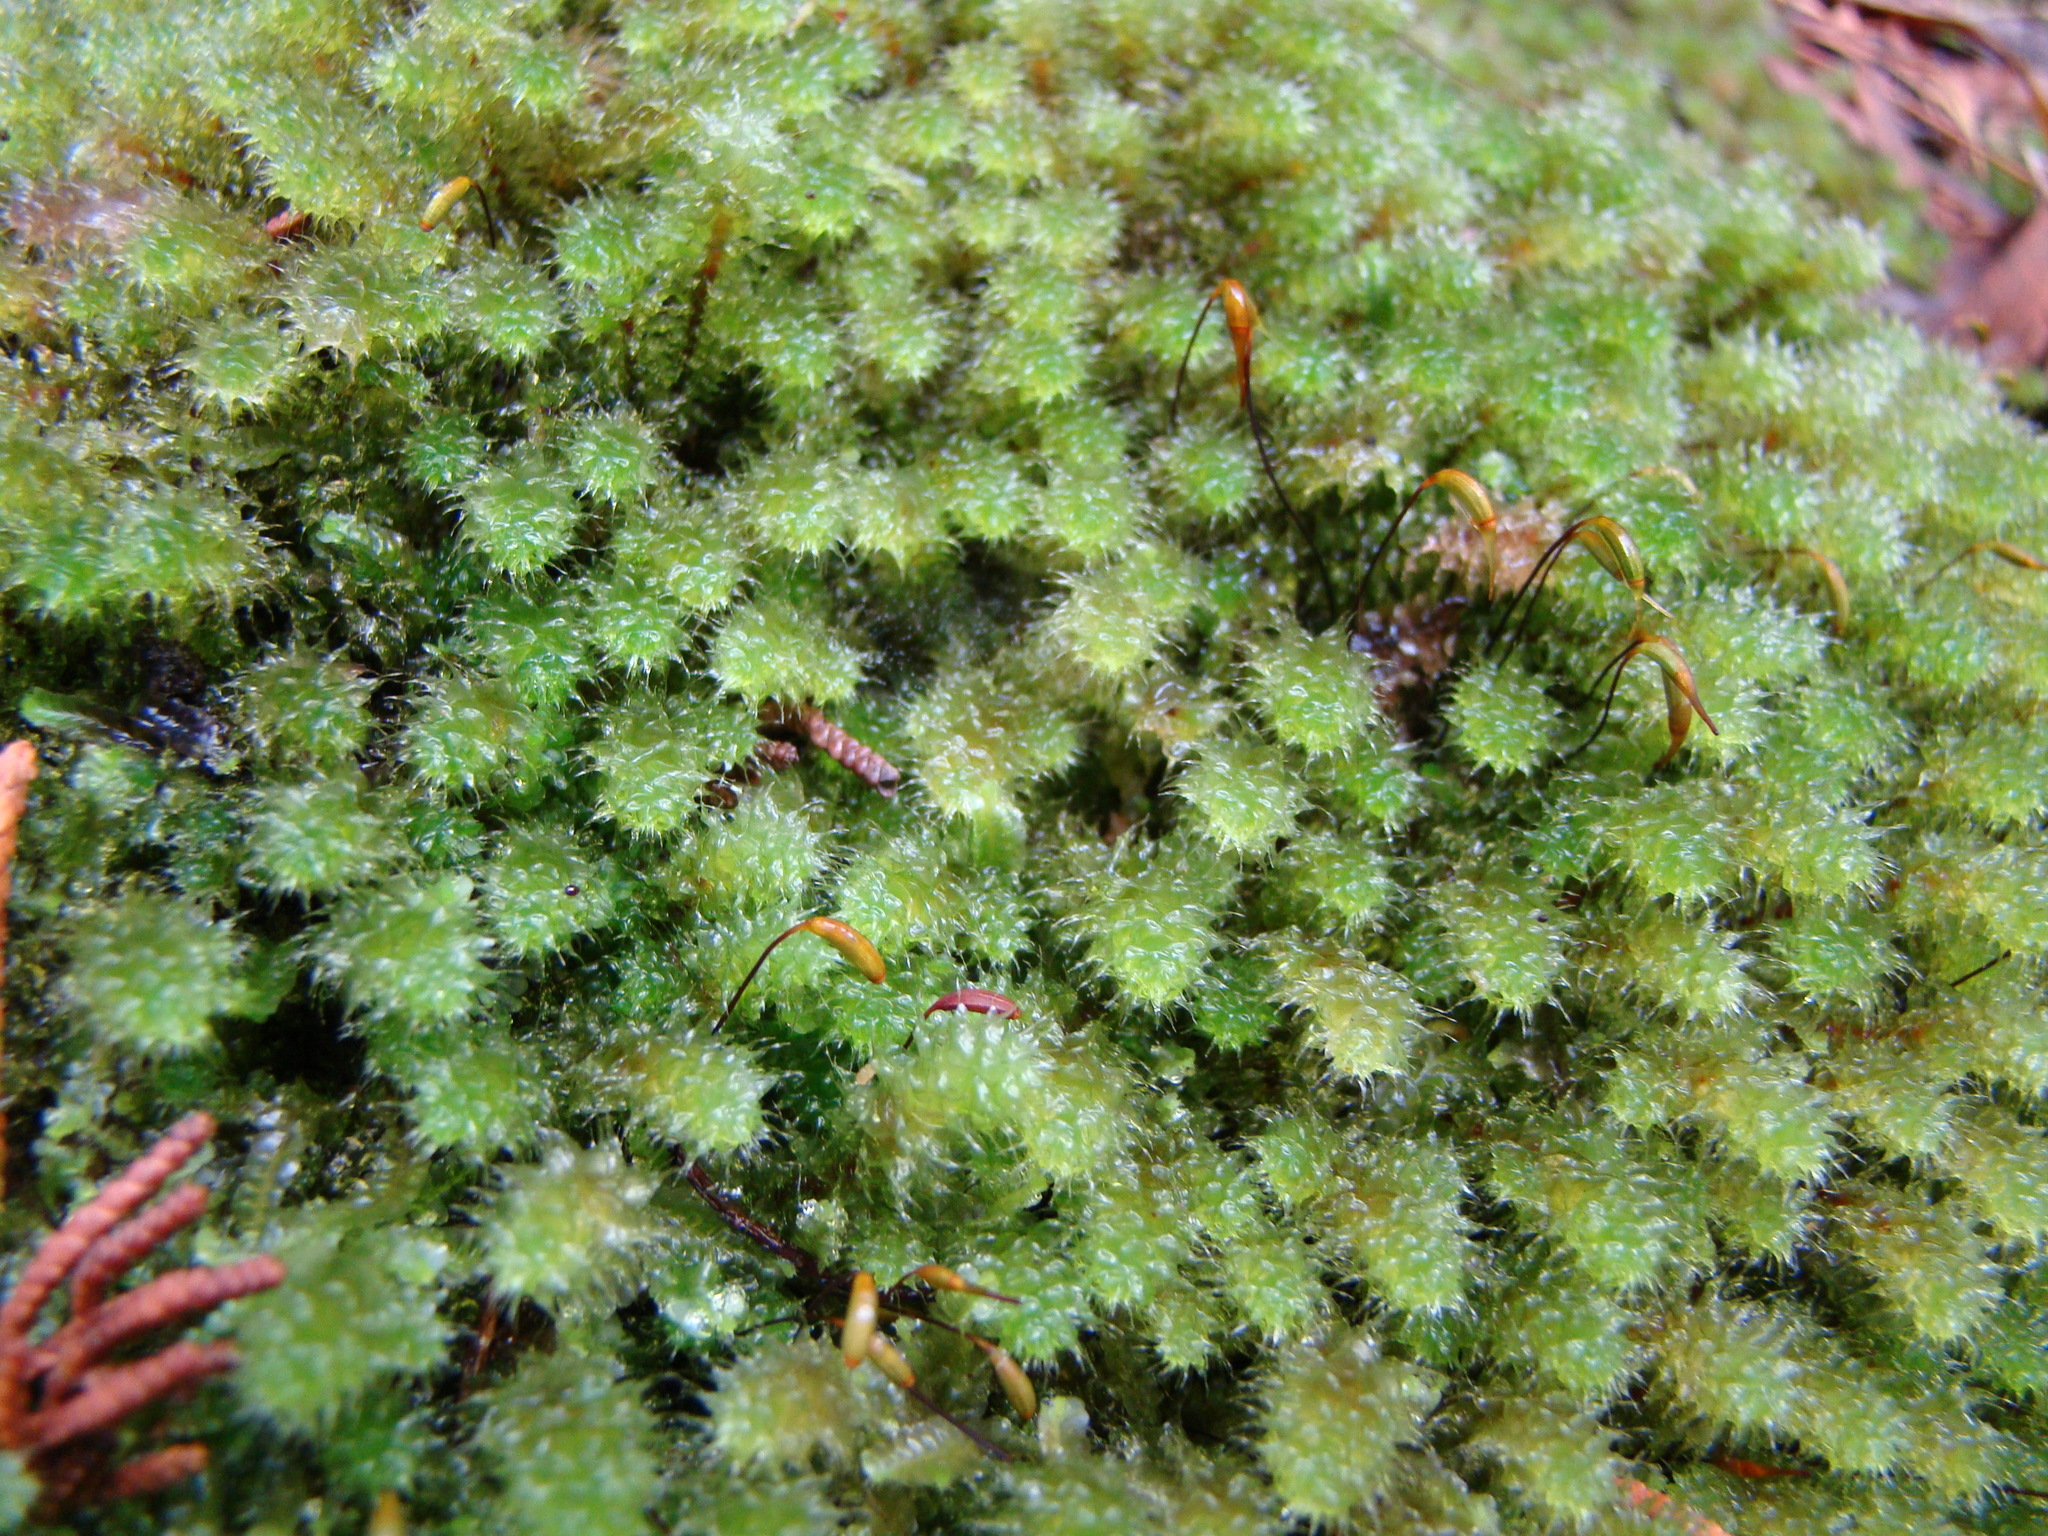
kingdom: Plantae
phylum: Bryophyta
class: Bryopsida
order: Ptychomniales
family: Ptychomniaceae
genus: Ptychomnion
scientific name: Ptychomnion aciculare
